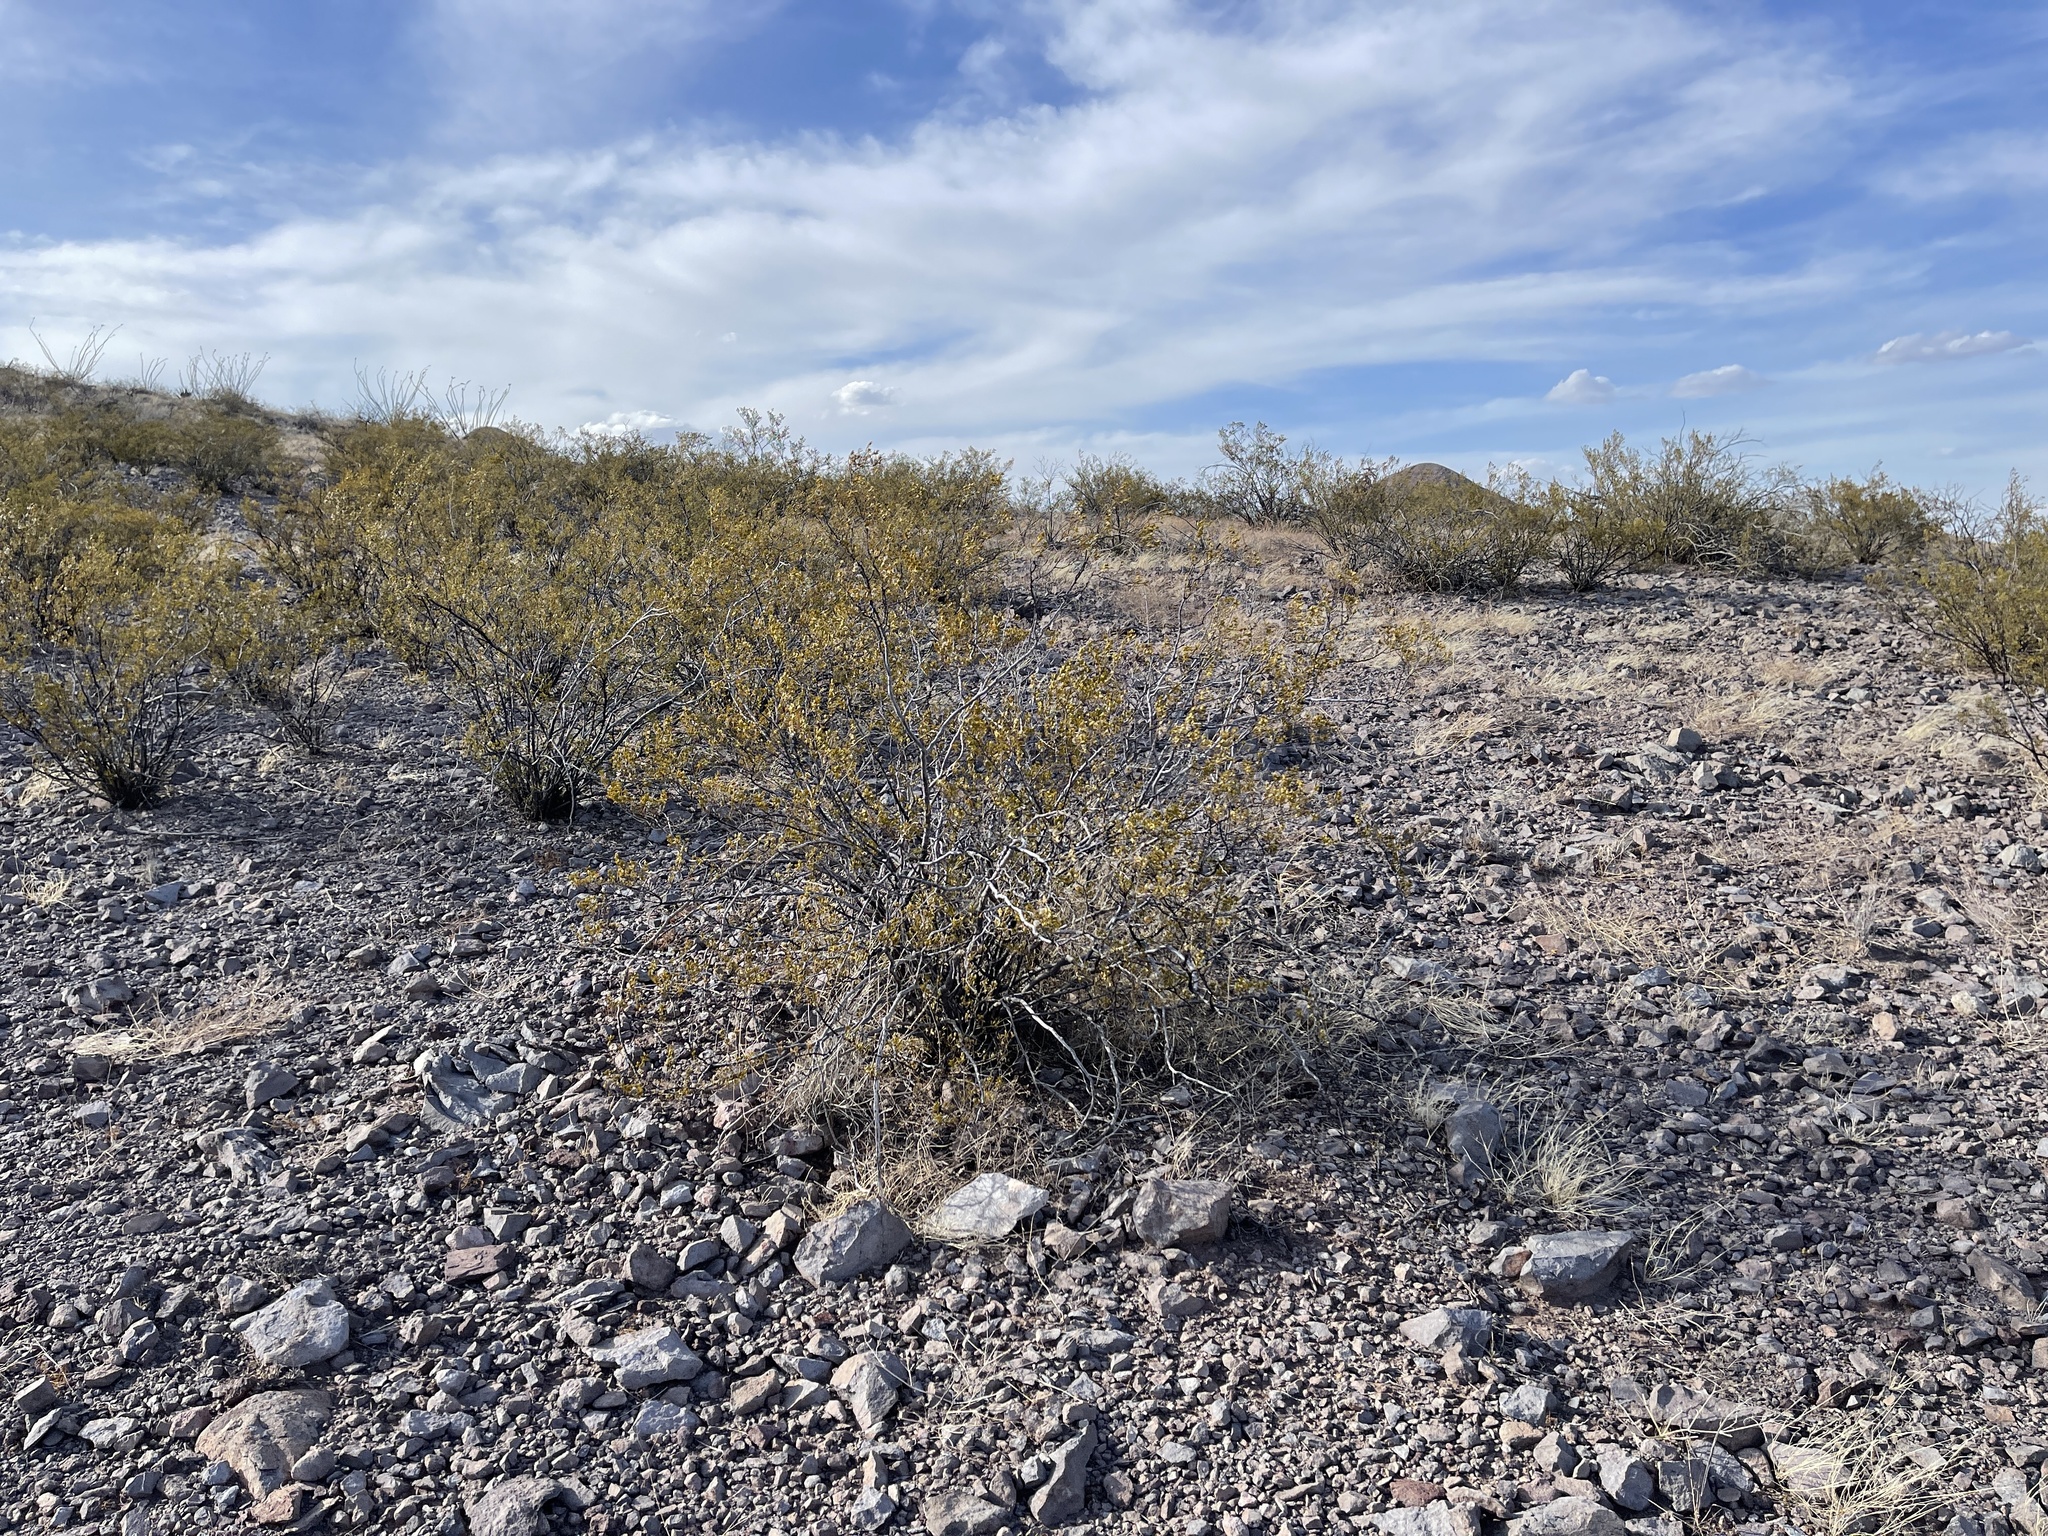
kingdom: Plantae
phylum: Tracheophyta
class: Magnoliopsida
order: Zygophyllales
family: Zygophyllaceae
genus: Larrea
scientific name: Larrea tridentata
